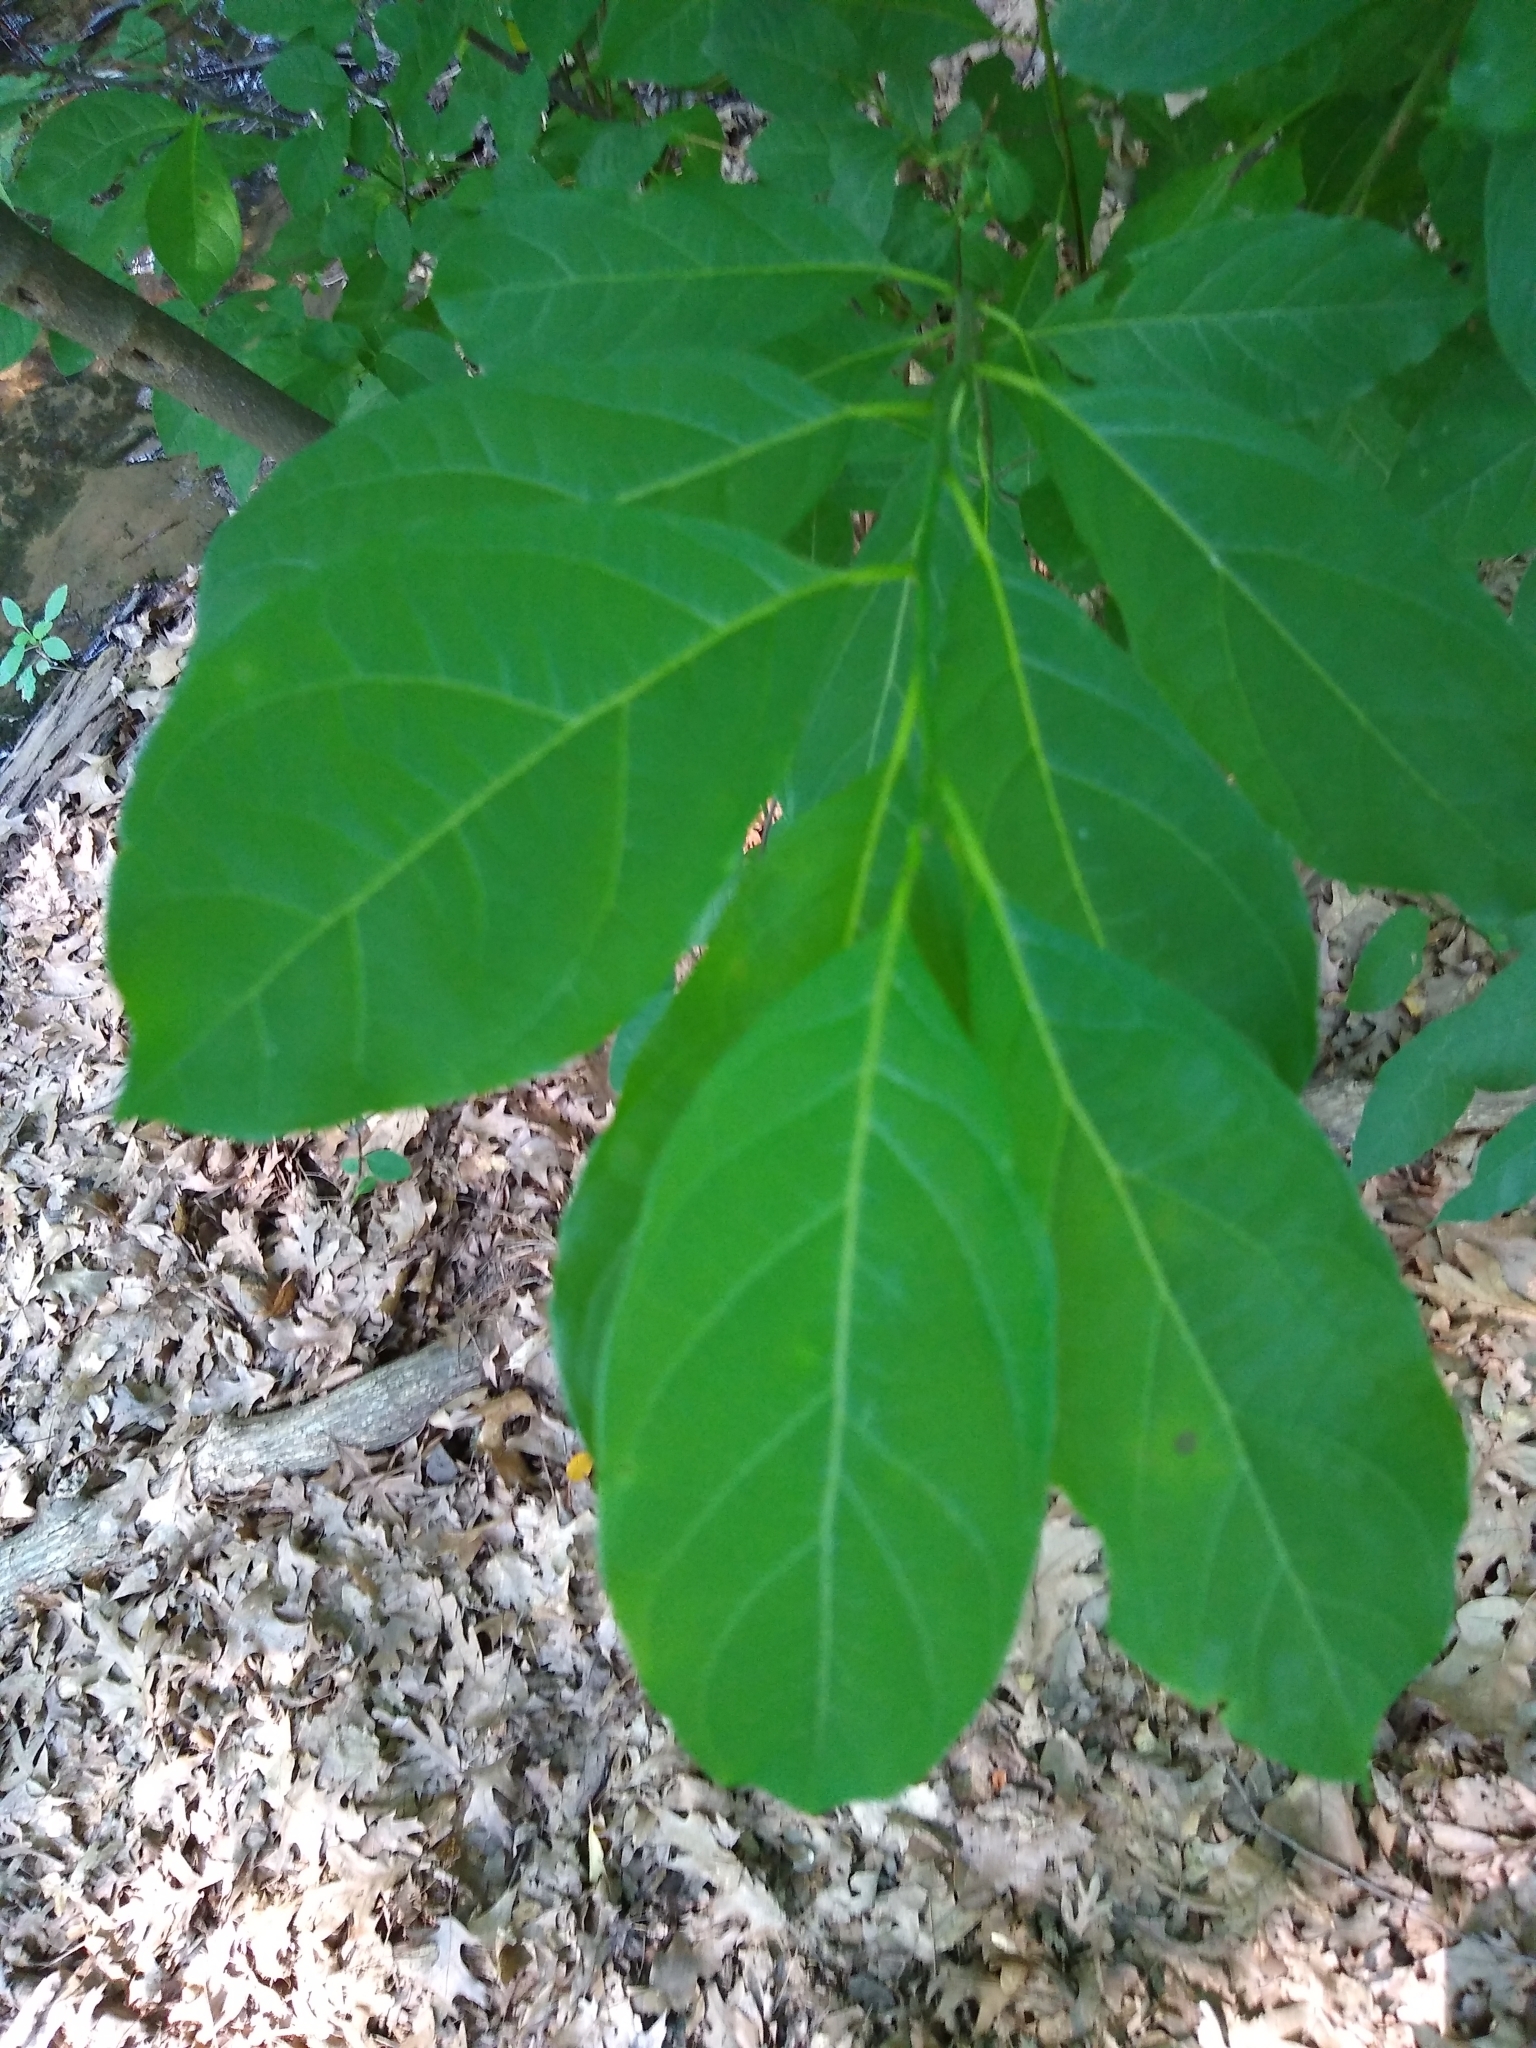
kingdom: Plantae
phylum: Tracheophyta
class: Magnoliopsida
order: Laurales
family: Lauraceae
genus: Lindera
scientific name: Lindera benzoin
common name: Spicebush
